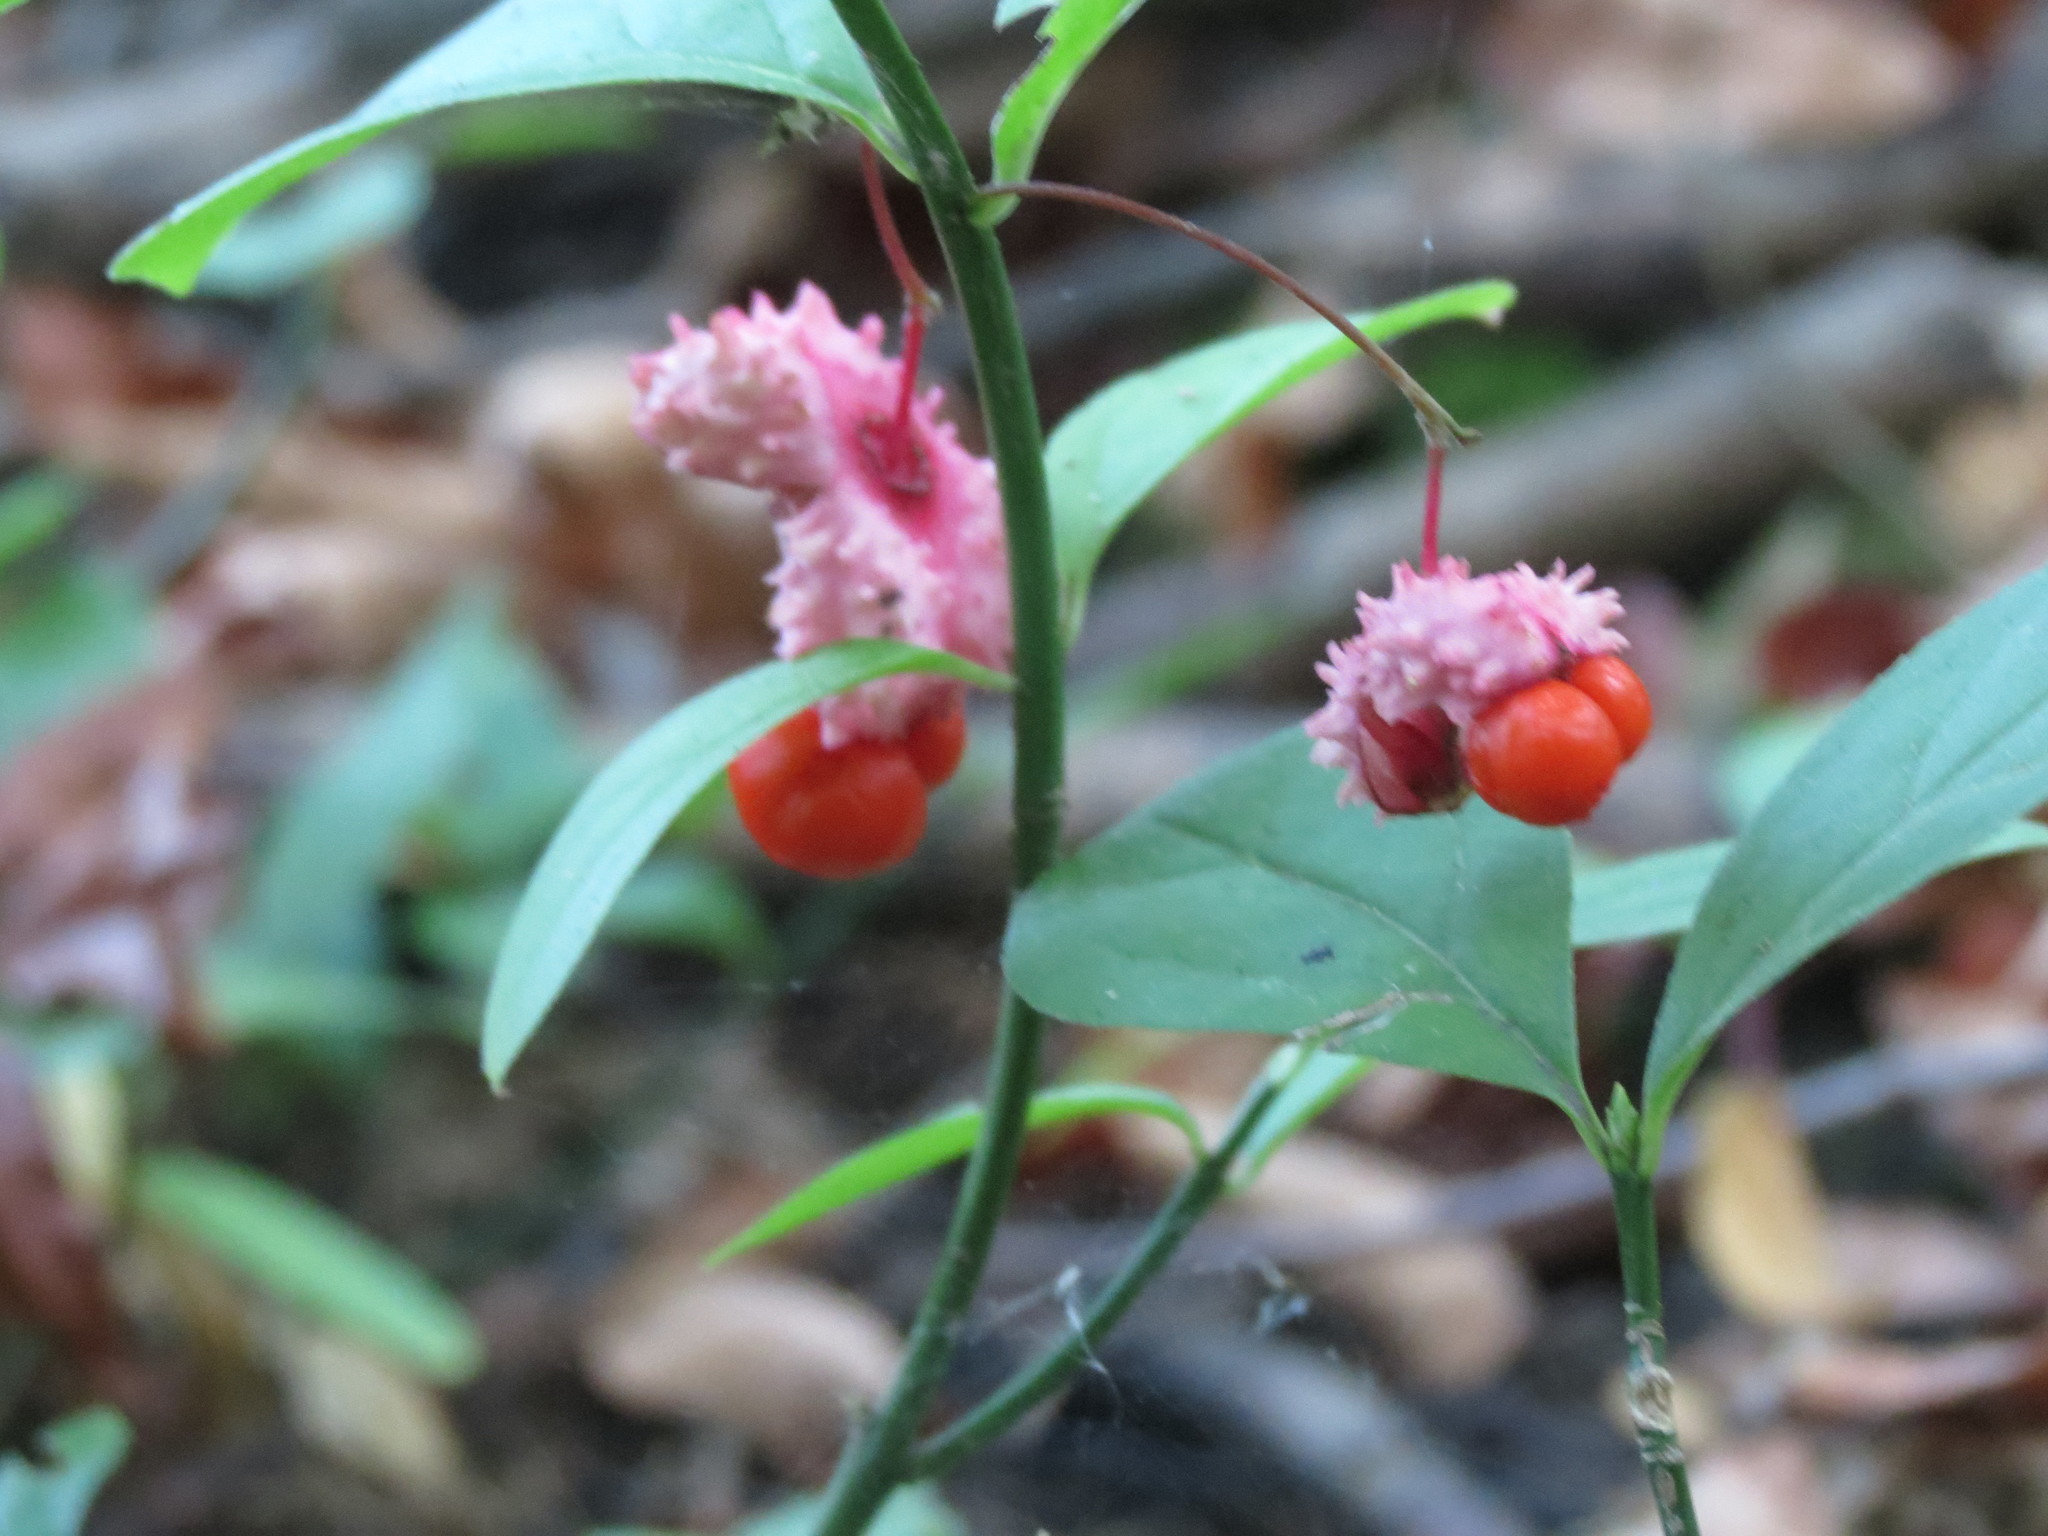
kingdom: Plantae
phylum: Tracheophyta
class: Magnoliopsida
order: Celastrales
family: Celastraceae
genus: Euonymus
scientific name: Euonymus obovatus
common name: Running strawberry-bush
